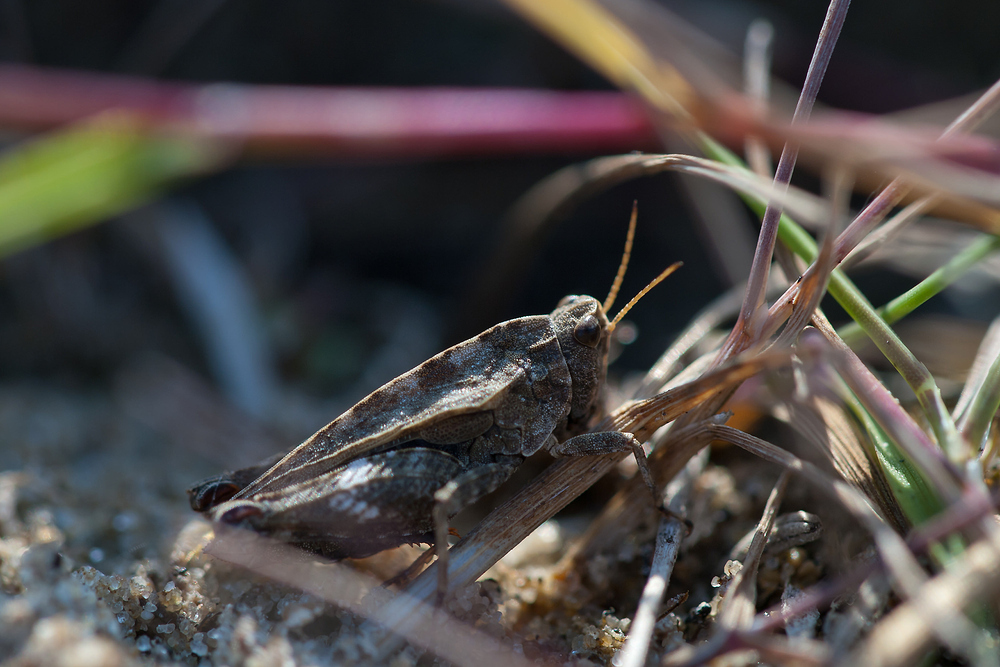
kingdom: Animalia
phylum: Arthropoda
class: Insecta
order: Orthoptera
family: Tetrigidae
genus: Tetrix
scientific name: Tetrix undulata
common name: Common groundhopper
